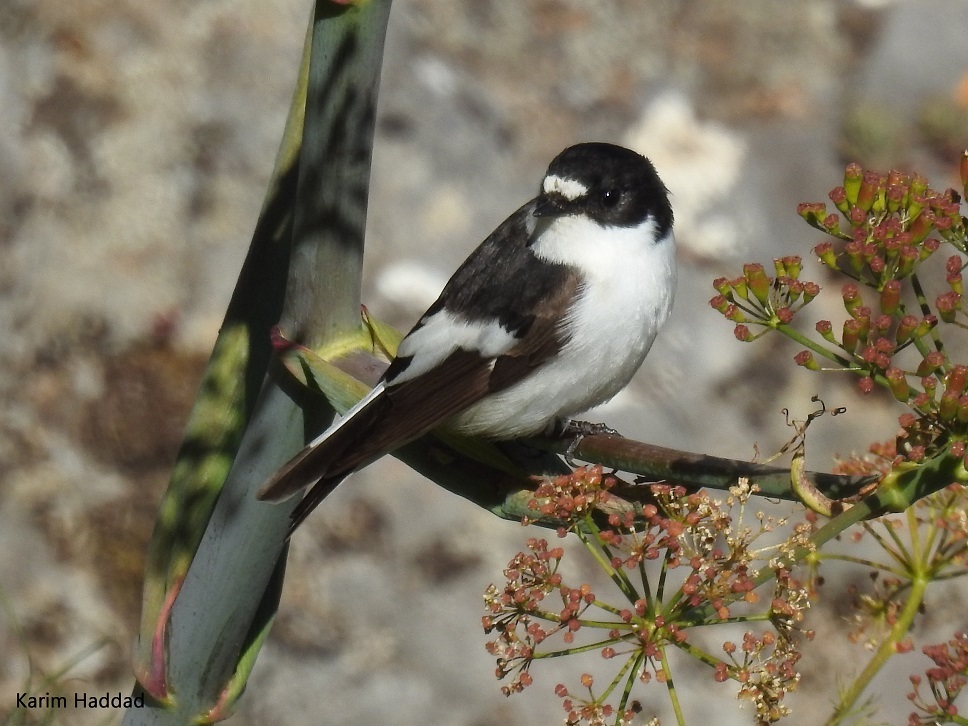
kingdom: Animalia
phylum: Chordata
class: Aves
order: Passeriformes
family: Muscicapidae
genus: Ficedula
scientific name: Ficedula hypoleuca
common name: European pied flycatcher
